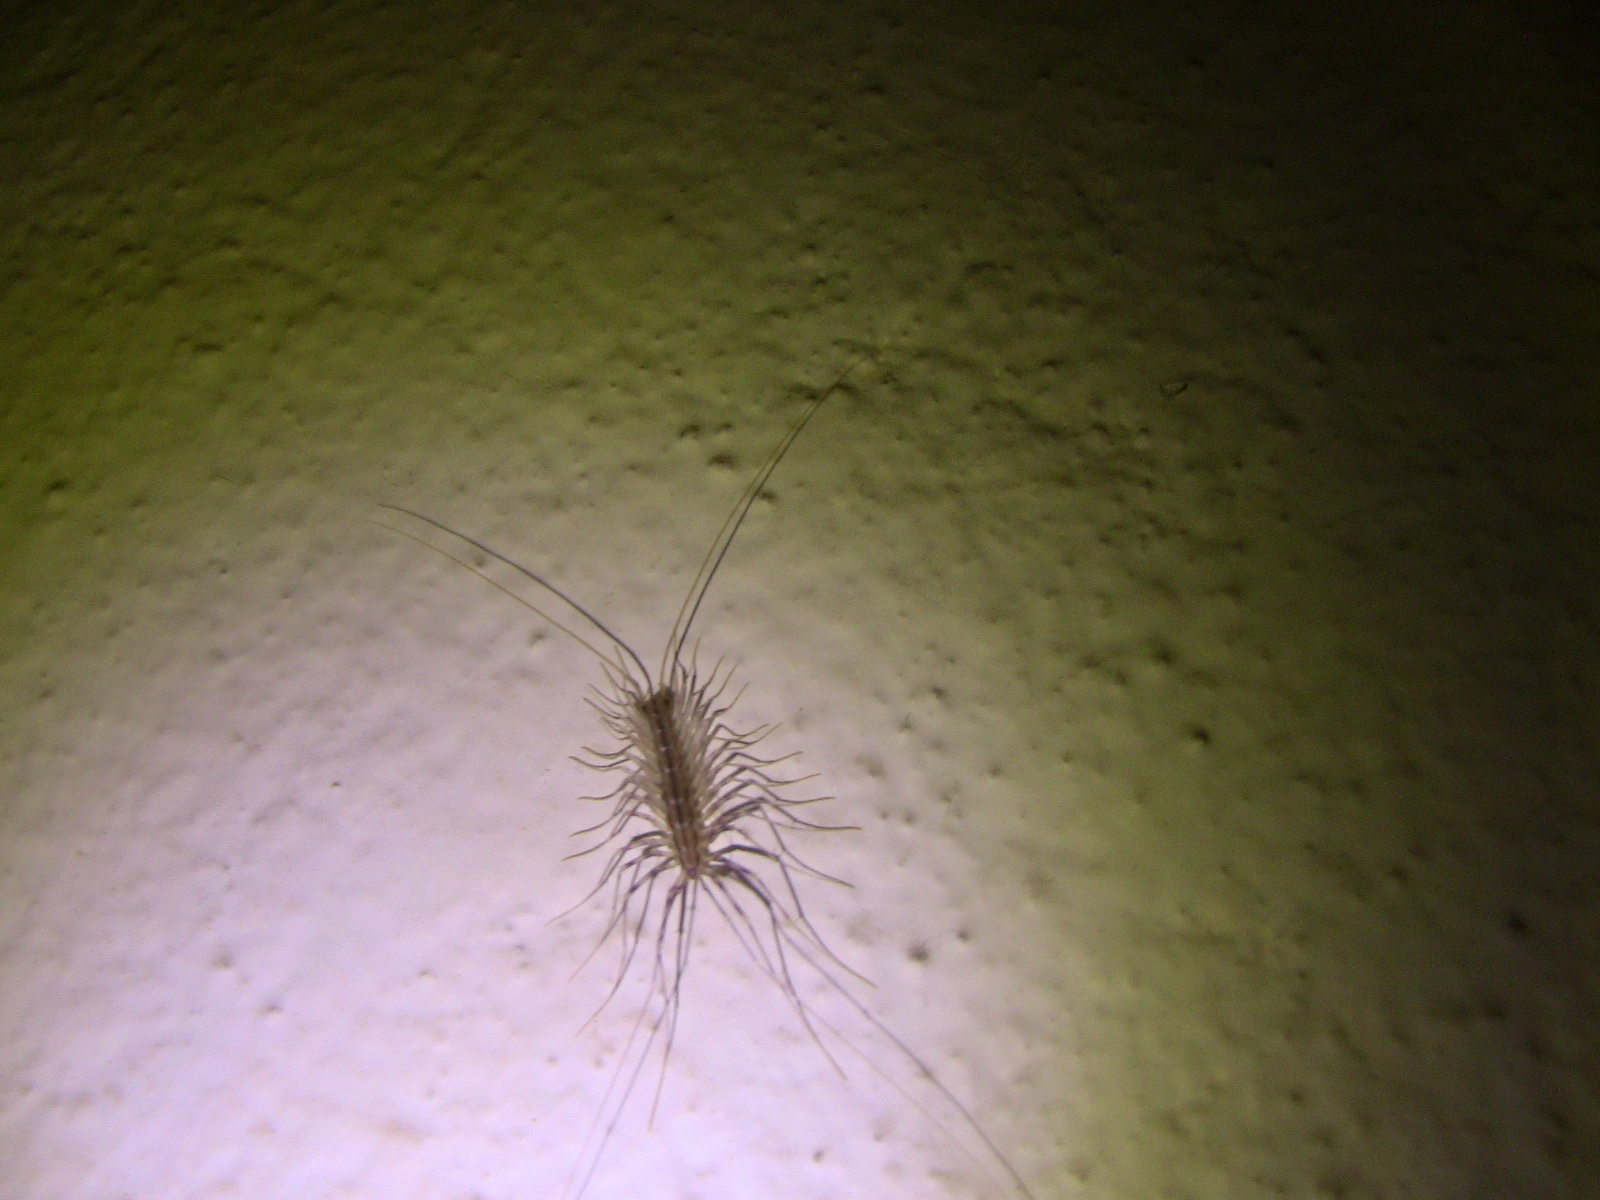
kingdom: Animalia
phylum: Arthropoda
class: Chilopoda
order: Scutigeromorpha
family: Scutigeridae
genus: Scutigera
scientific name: Scutigera coleoptrata
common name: House centipede
